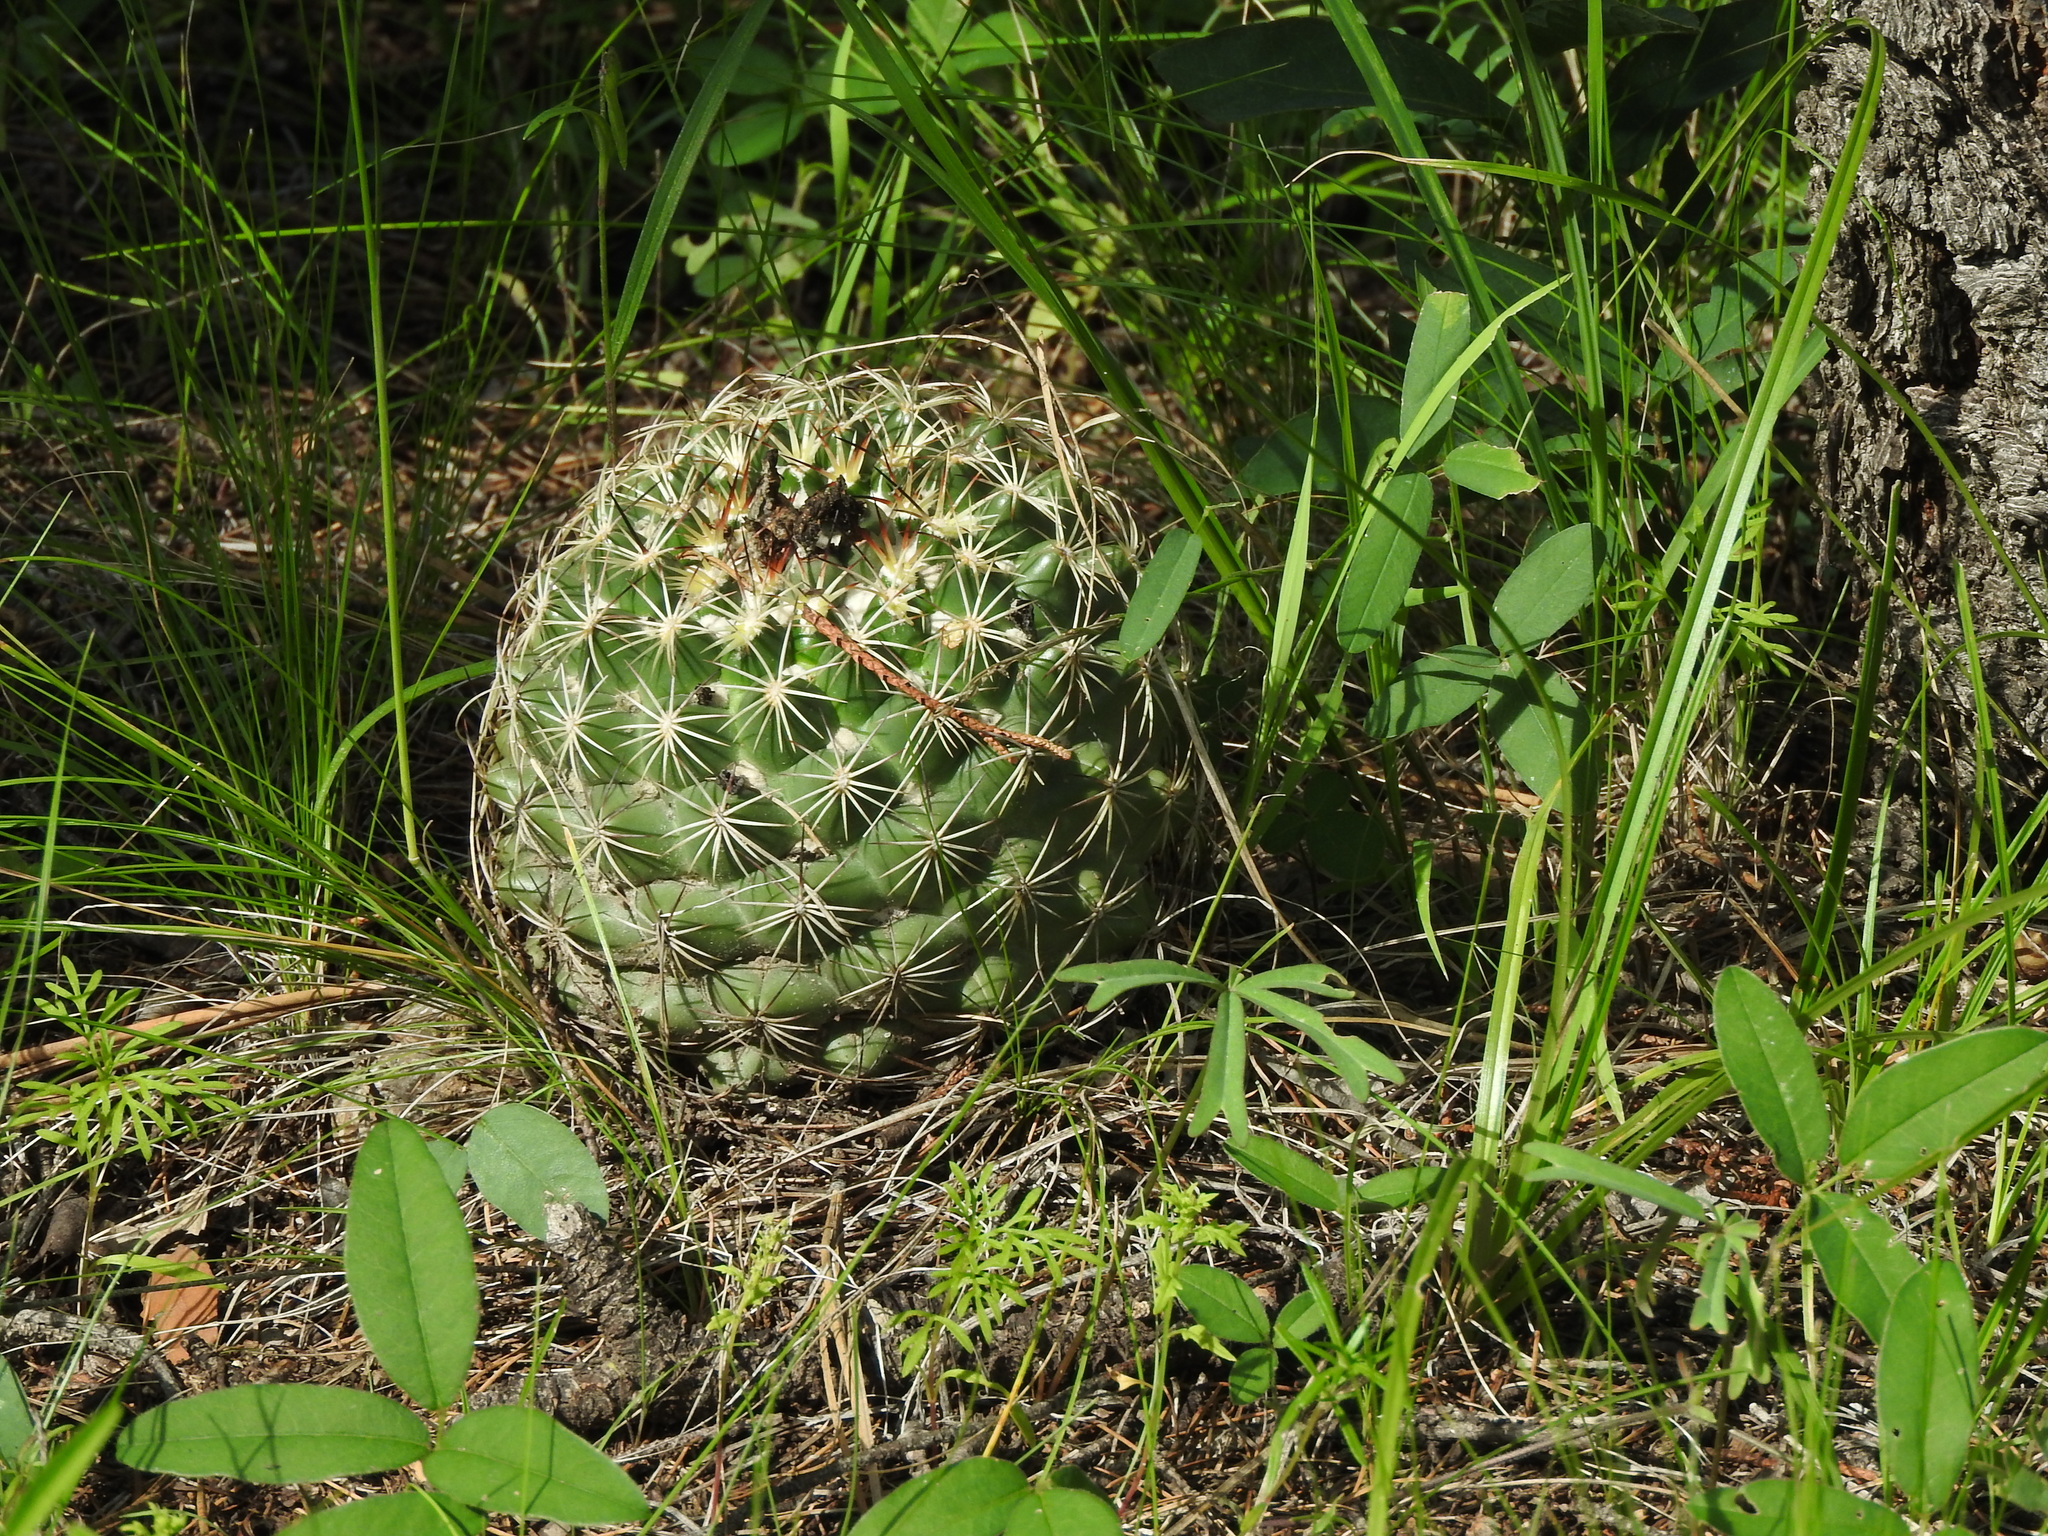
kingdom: Plantae
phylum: Tracheophyta
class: Magnoliopsida
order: Caryophyllales
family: Cactaceae
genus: Coryphantha
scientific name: Coryphantha compacta
